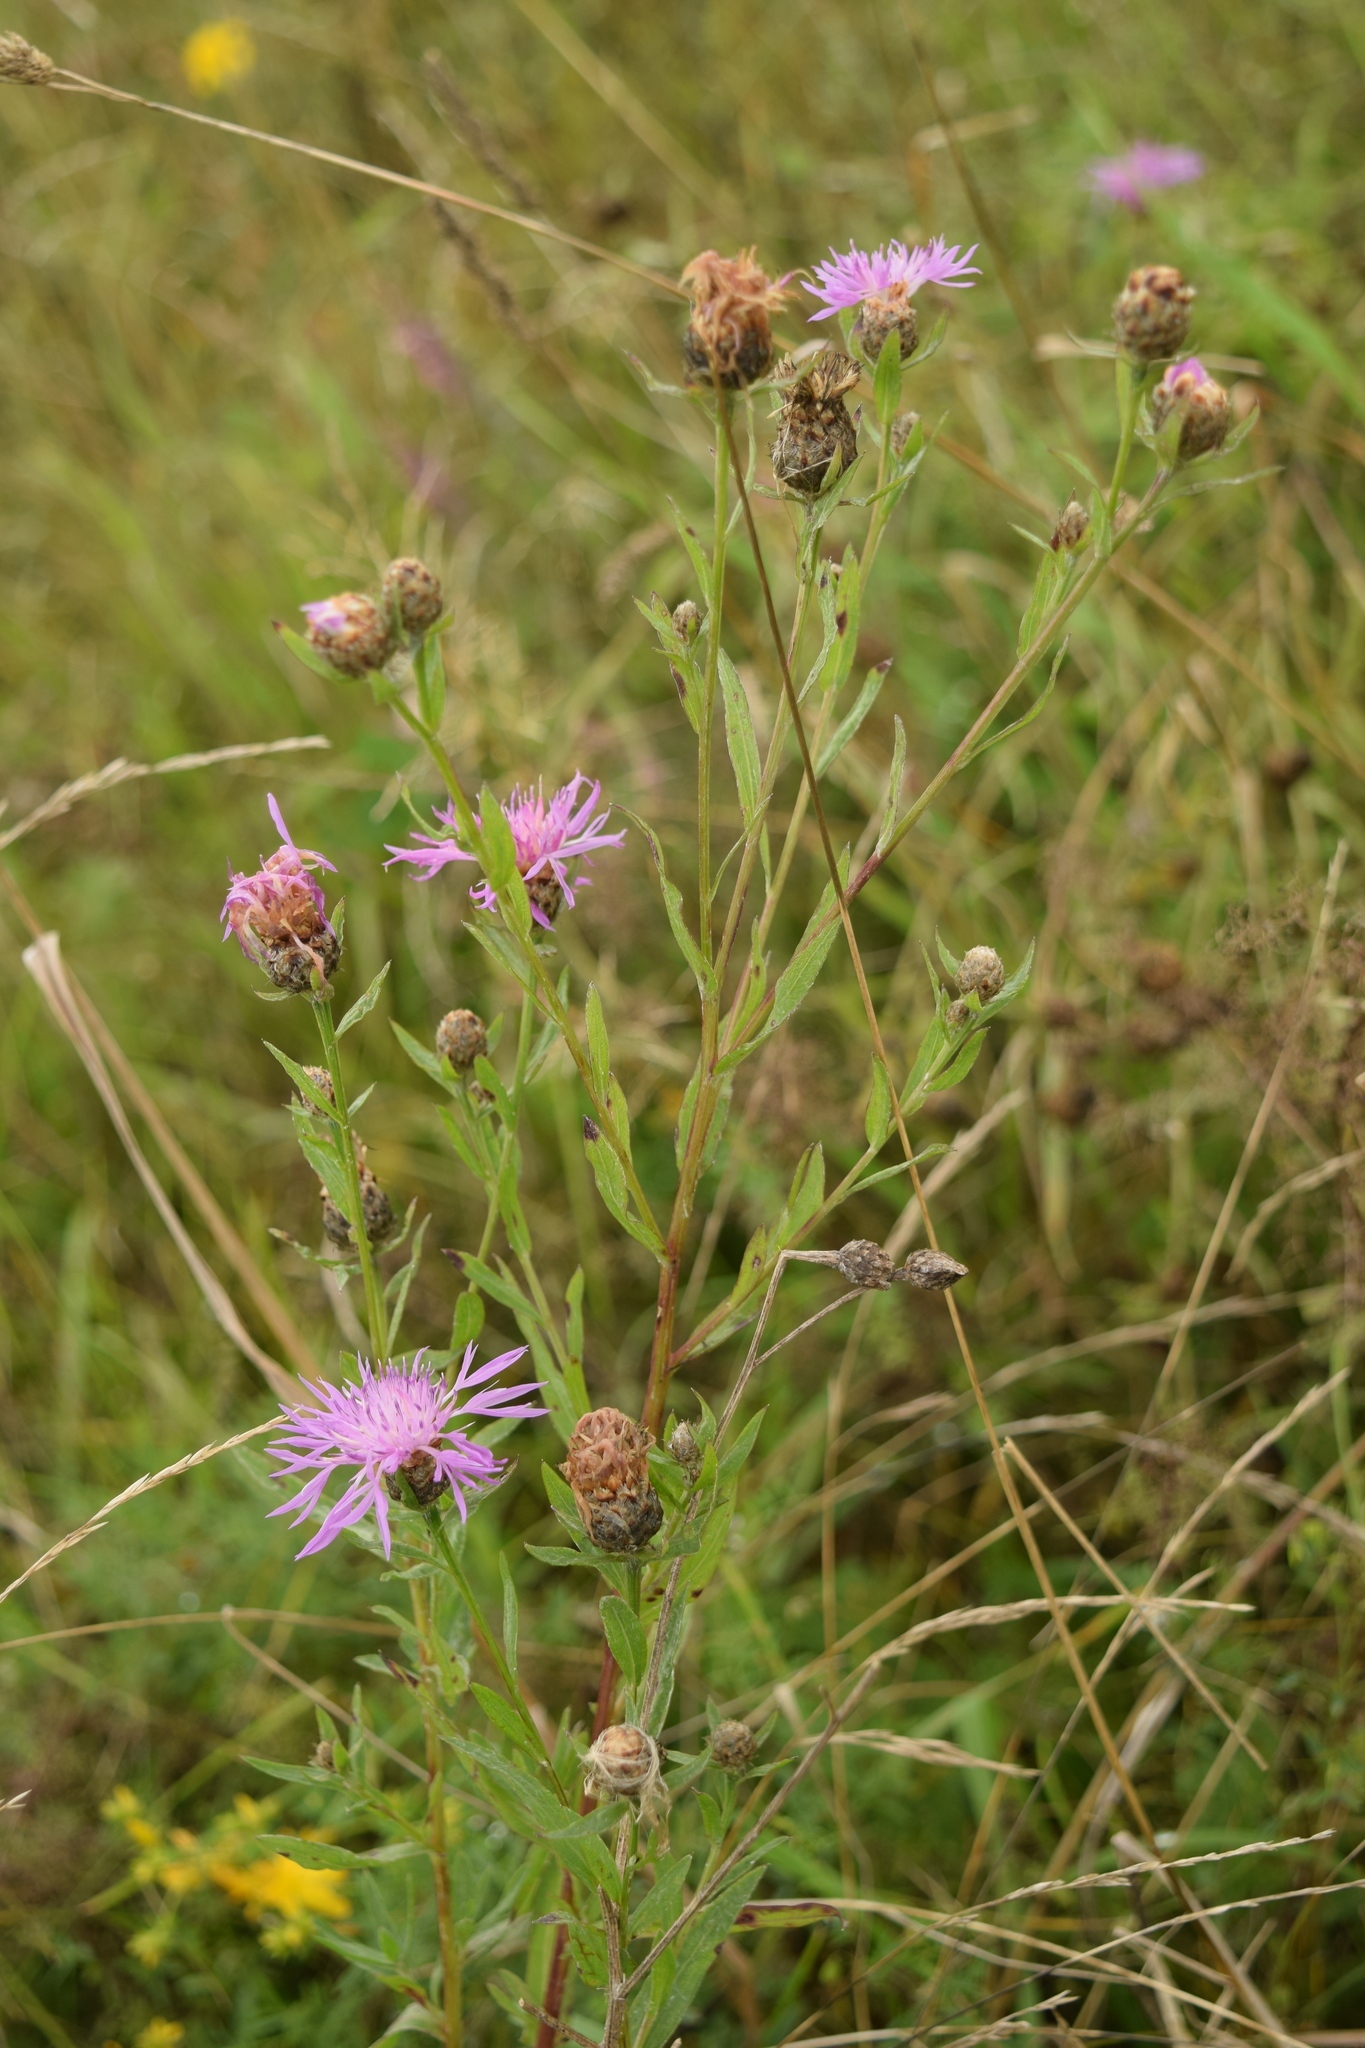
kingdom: Plantae
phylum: Tracheophyta
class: Magnoliopsida
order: Asterales
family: Asteraceae
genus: Centaurea
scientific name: Centaurea jacea
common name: Brown knapweed
